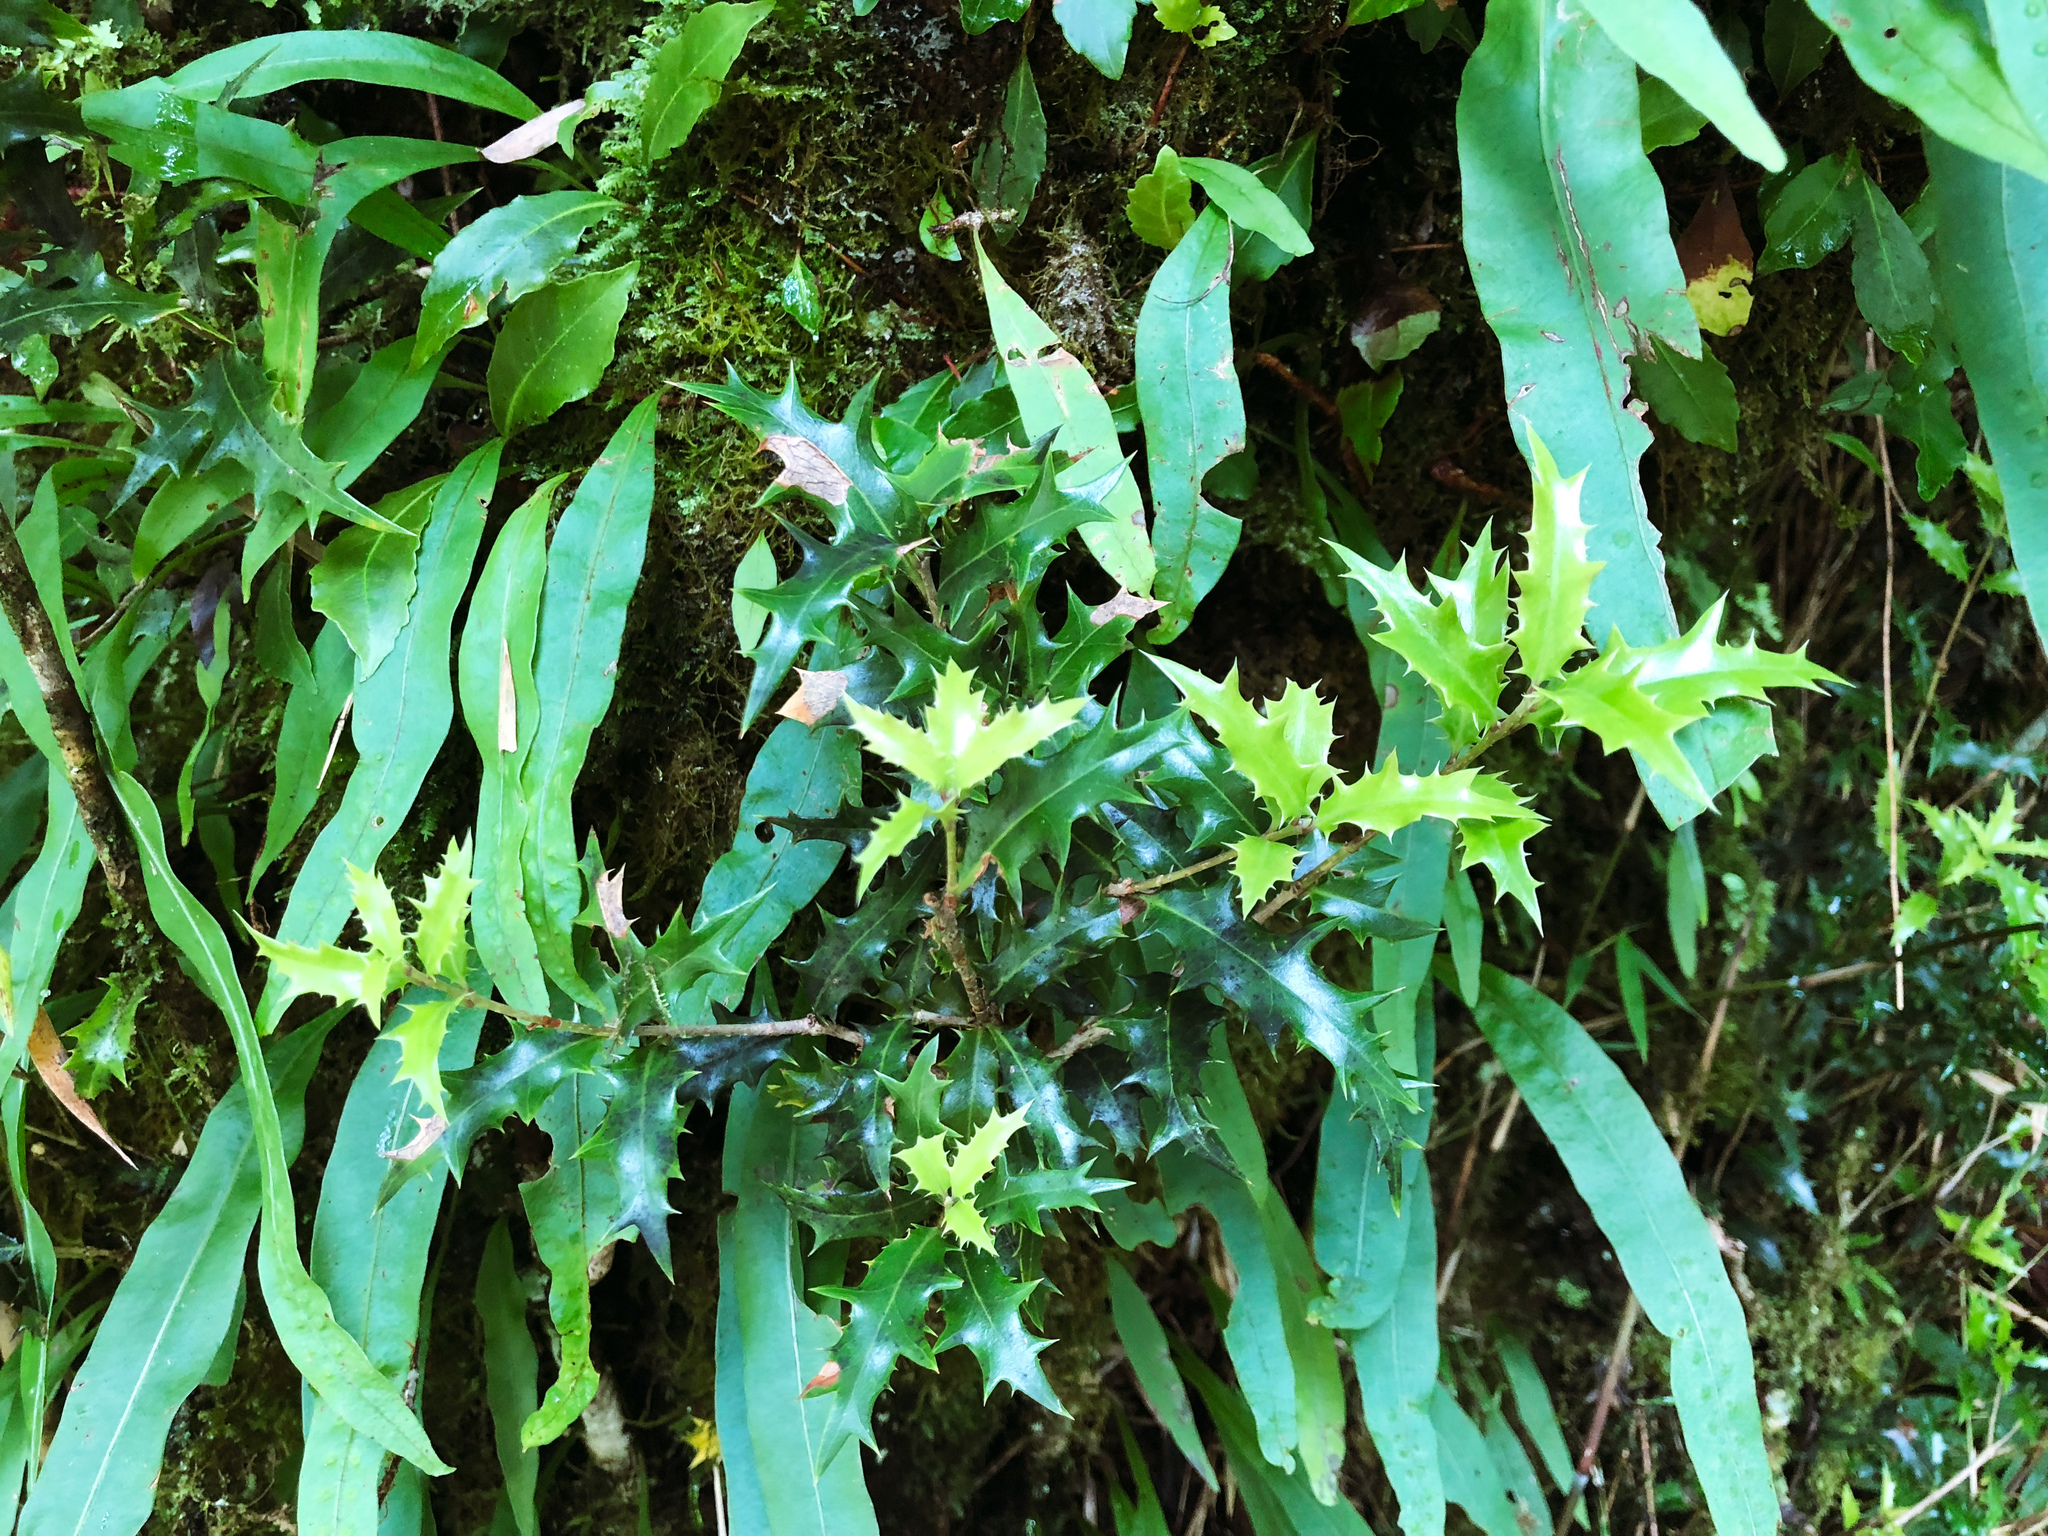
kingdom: Plantae
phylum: Tracheophyta
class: Magnoliopsida
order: Lamiales
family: Oleaceae
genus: Osmanthus
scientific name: Osmanthus heterophyllus
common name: Holly osmanthus
